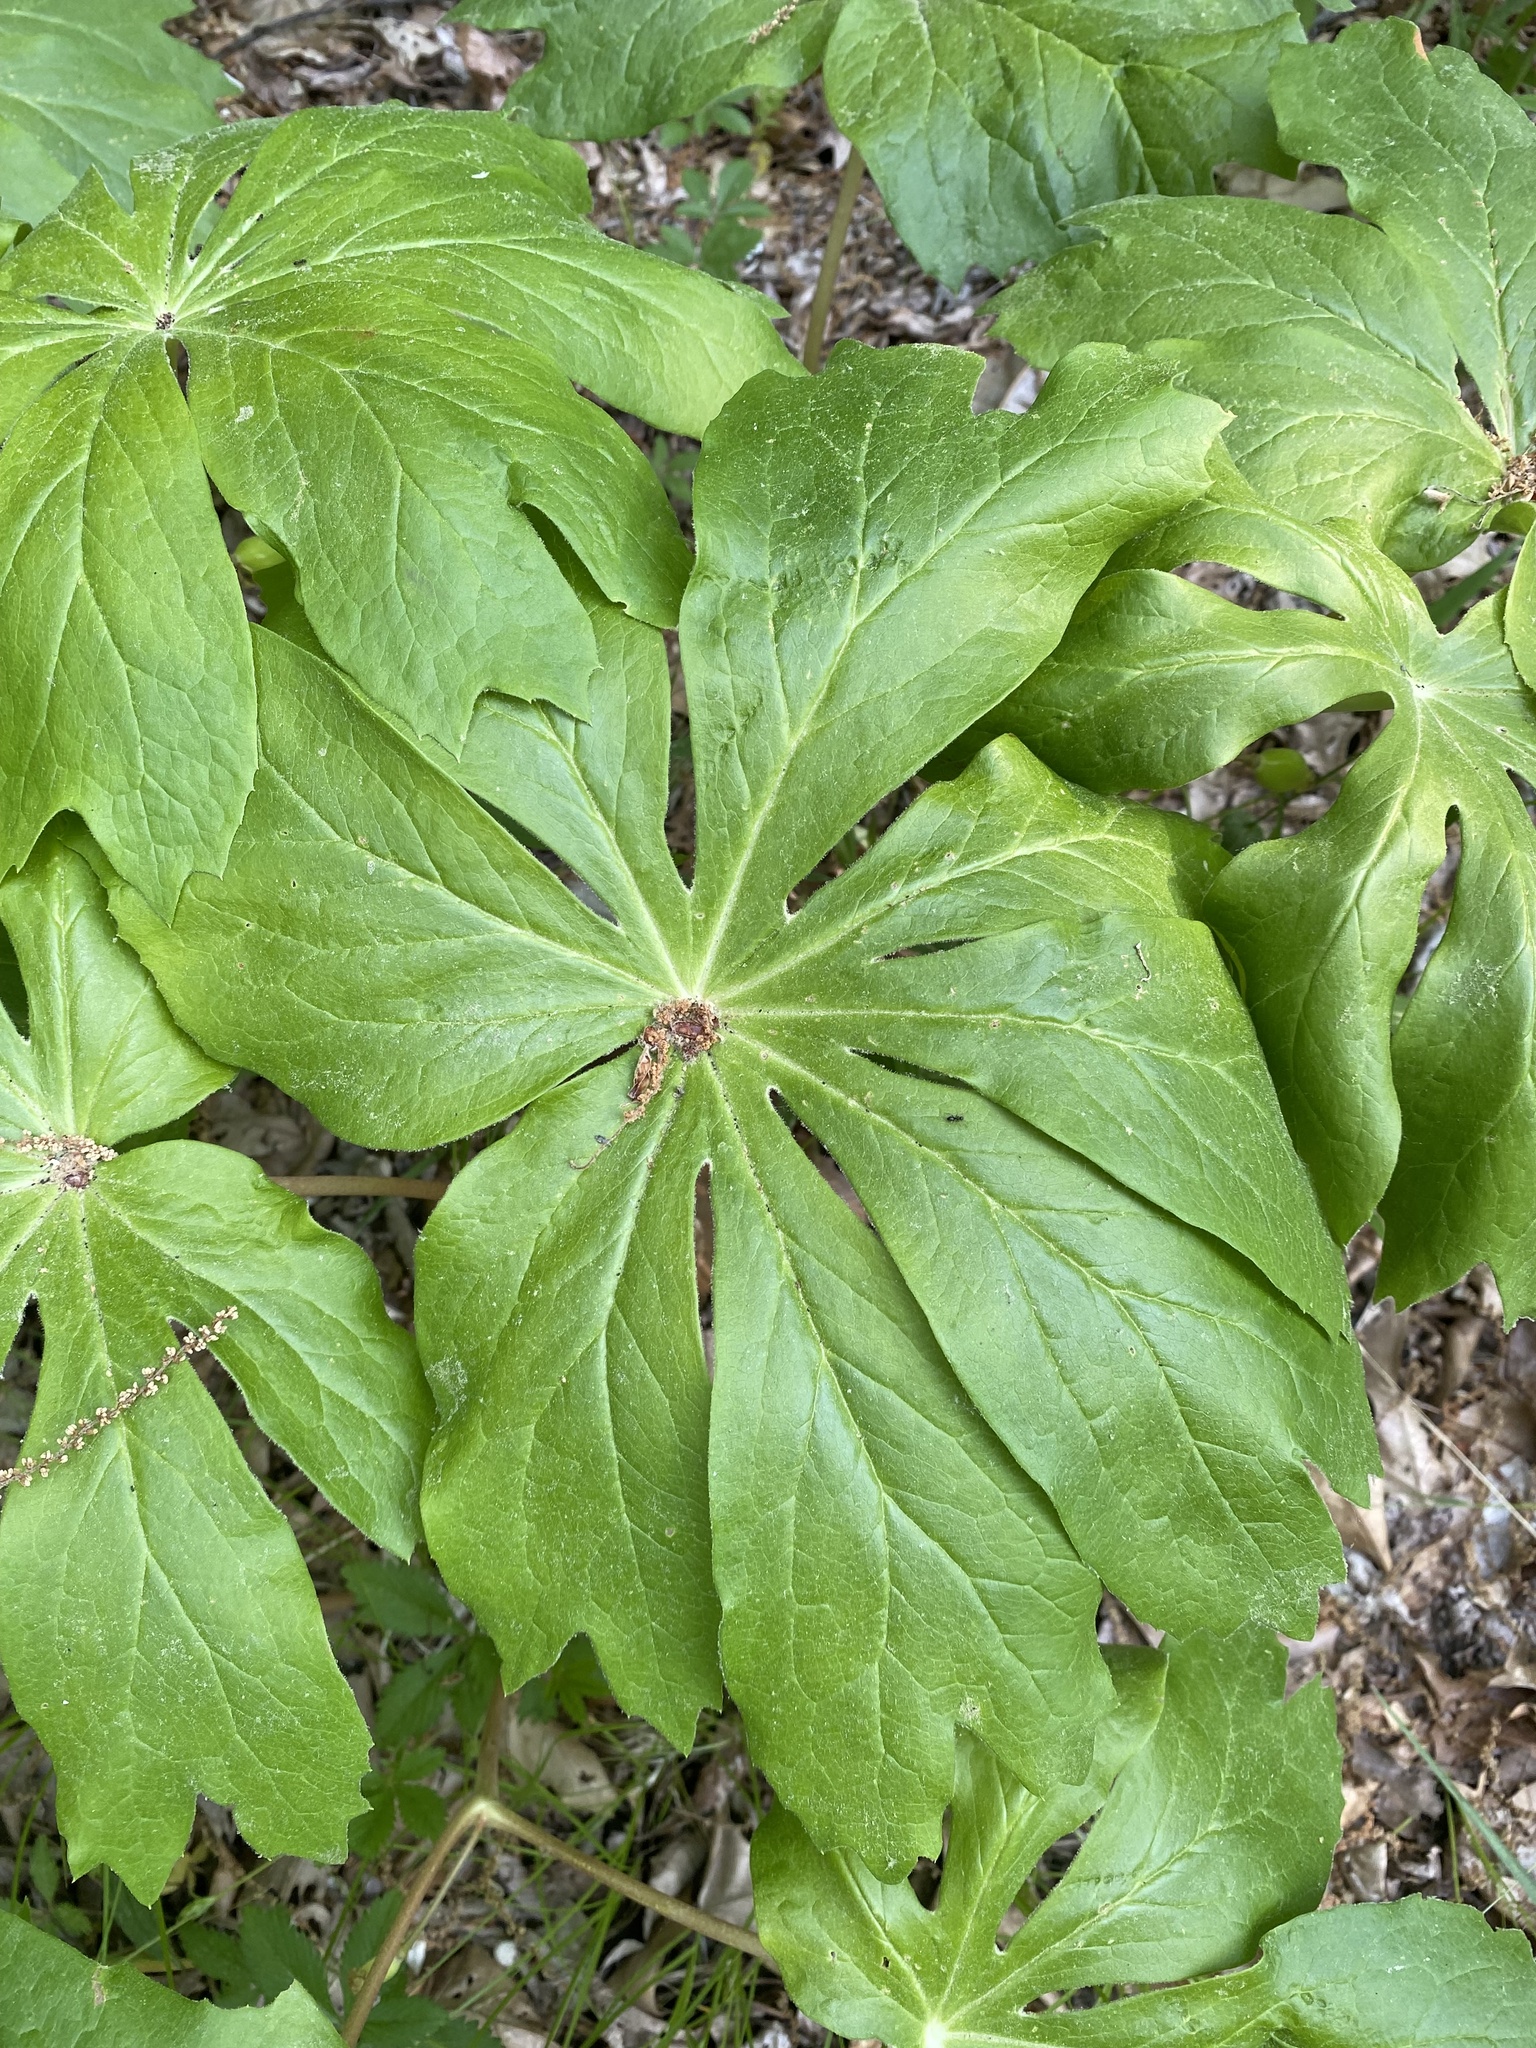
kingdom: Plantae
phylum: Tracheophyta
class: Magnoliopsida
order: Ranunculales
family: Berberidaceae
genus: Podophyllum
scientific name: Podophyllum peltatum
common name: Wild mandrake
